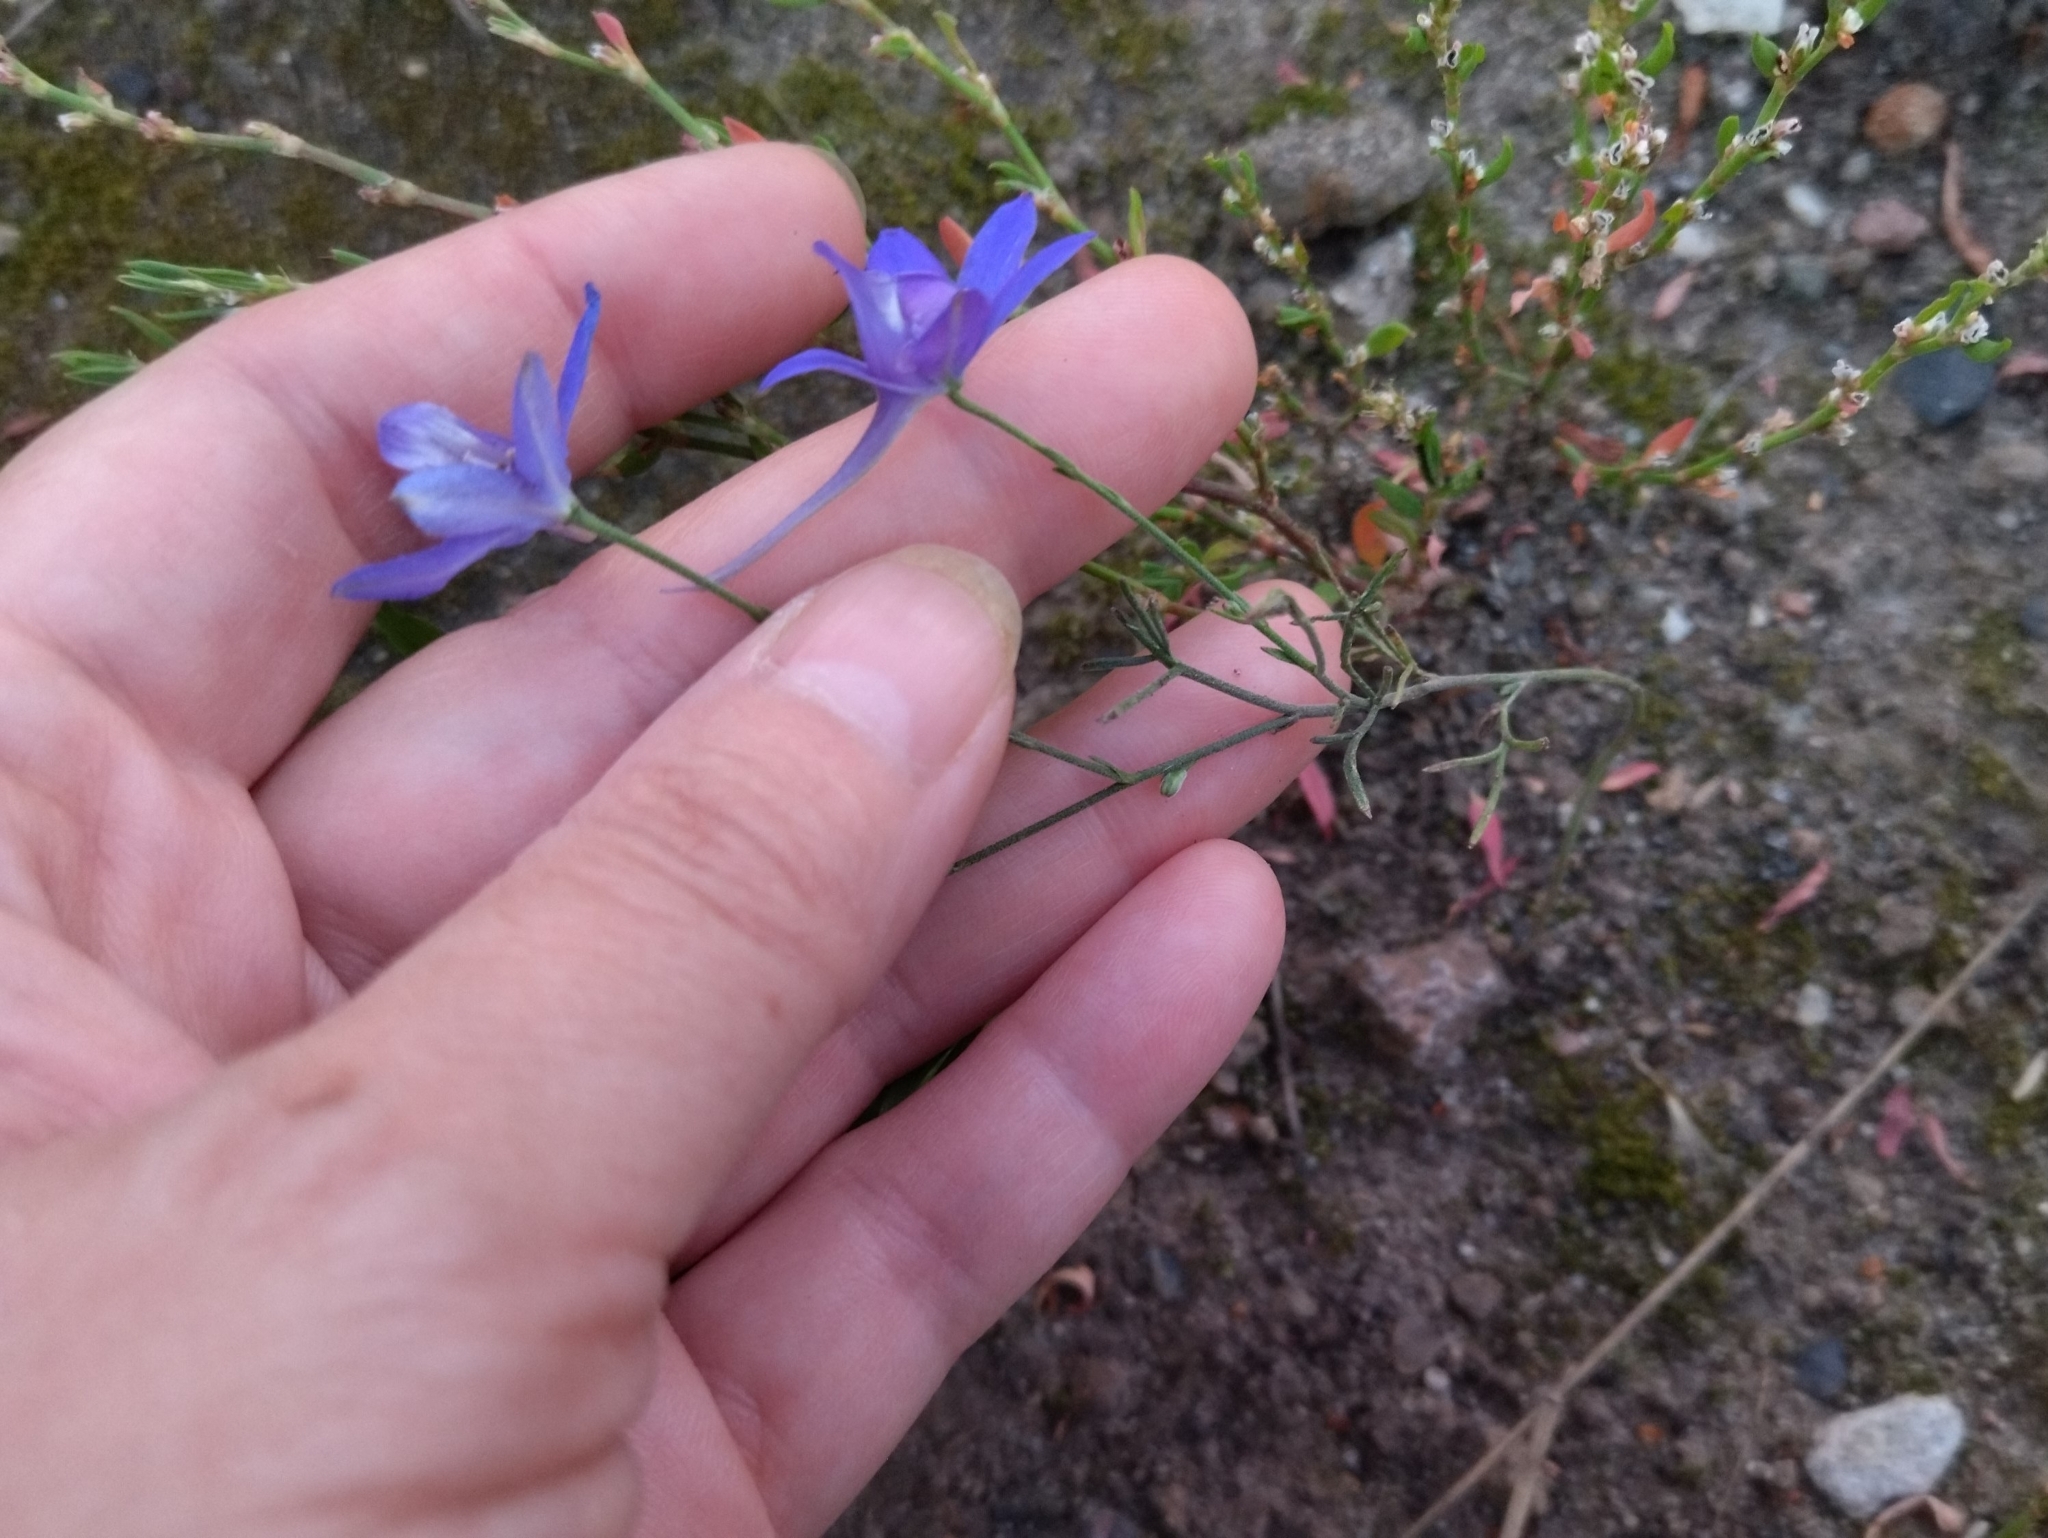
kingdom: Plantae
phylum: Tracheophyta
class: Magnoliopsida
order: Ranunculales
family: Ranunculaceae
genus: Delphinium
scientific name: Delphinium consolida
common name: Branching larkspur
